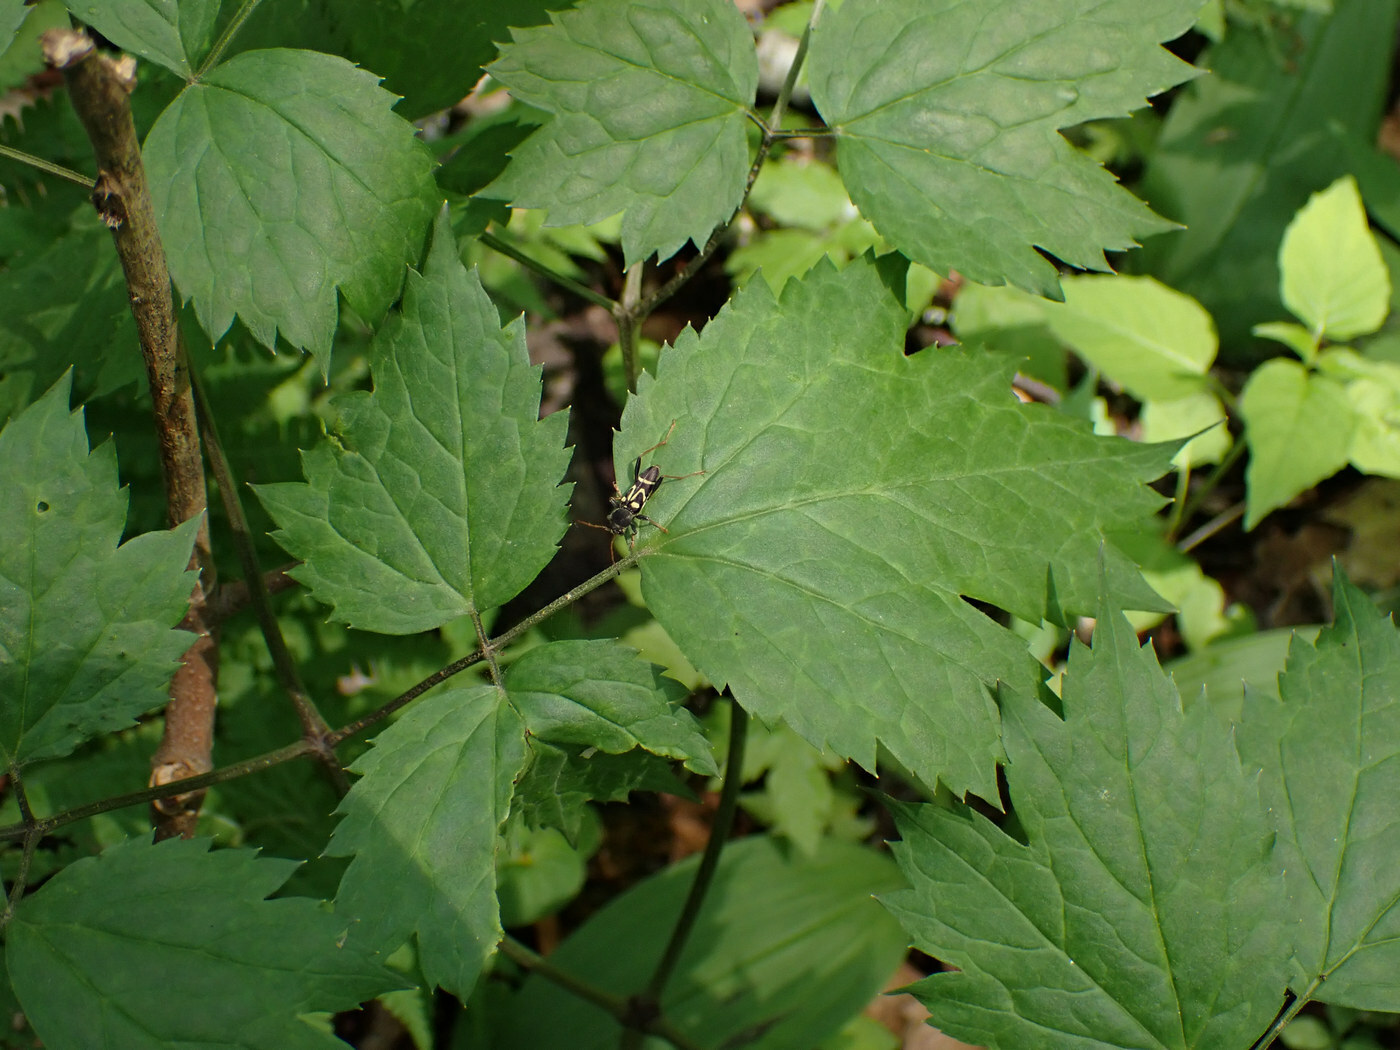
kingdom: Animalia
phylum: Arthropoda
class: Insecta
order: Coleoptera
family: Cerambycidae
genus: Clytus
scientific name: Clytus ruricola
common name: Round-necked longhorn beetle
